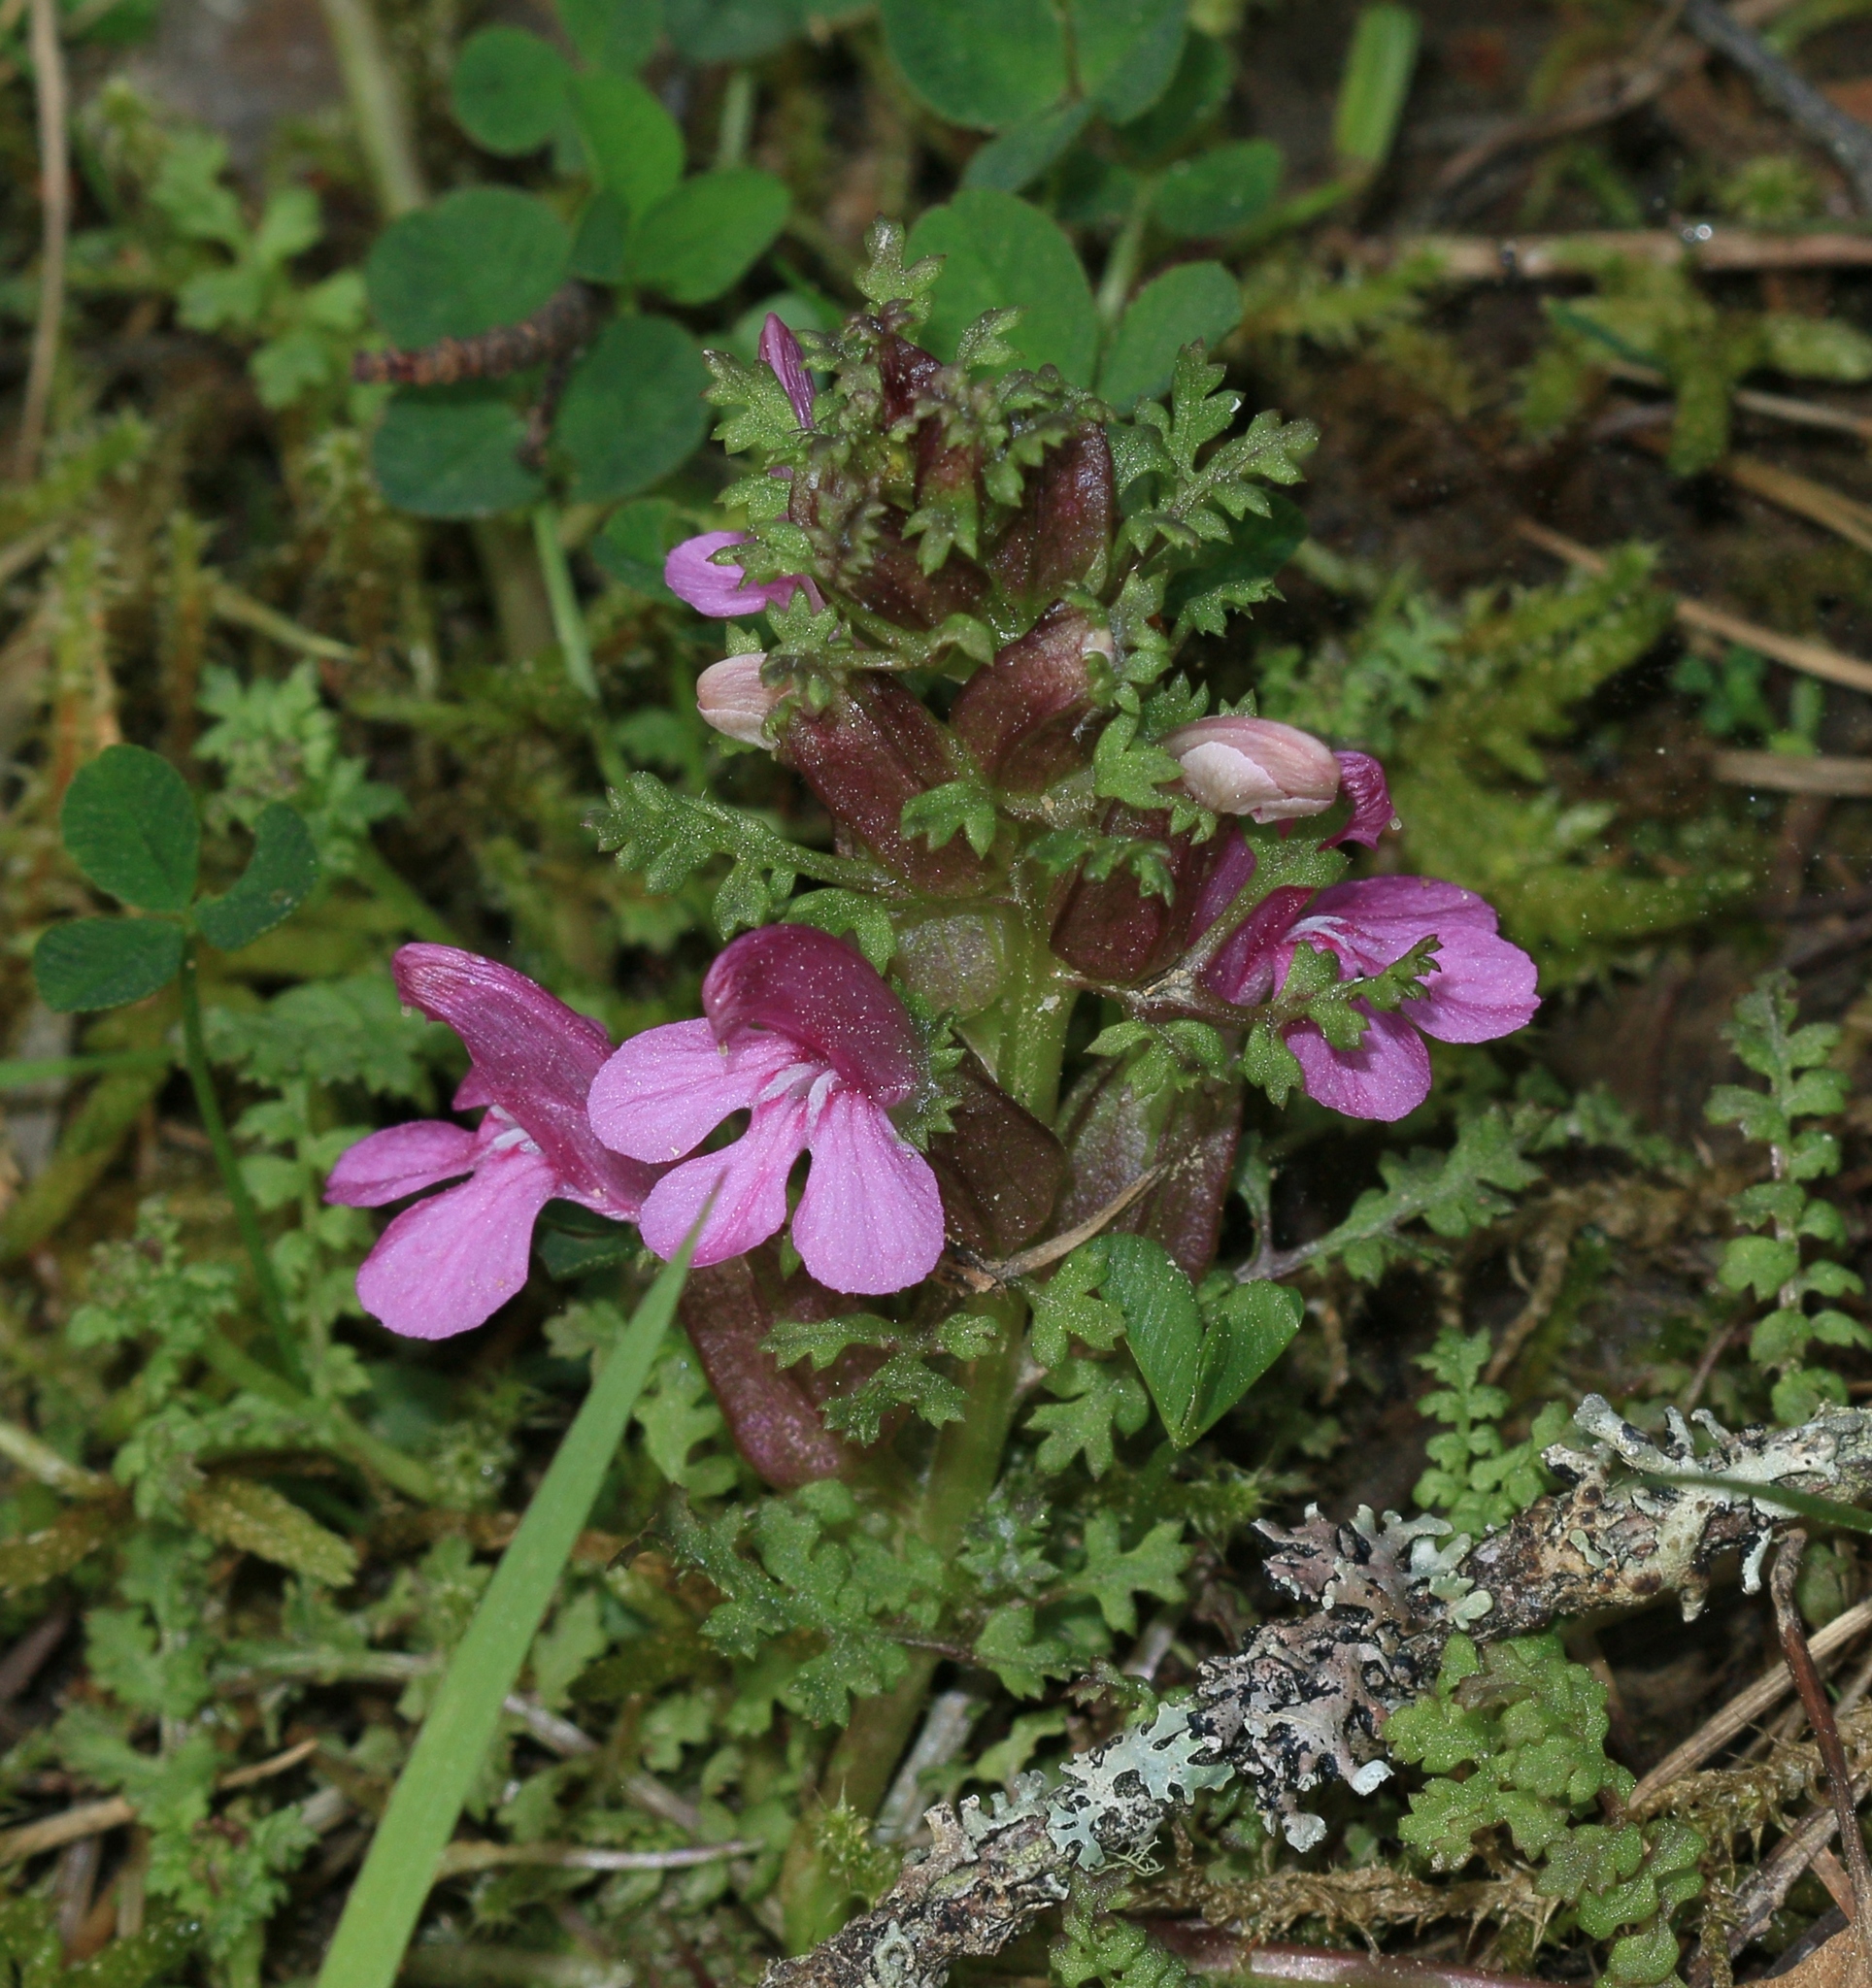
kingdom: Plantae
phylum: Tracheophyta
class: Magnoliopsida
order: Lamiales
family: Orobanchaceae
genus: Pedicularis
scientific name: Pedicularis sylvatica
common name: Lousewort
